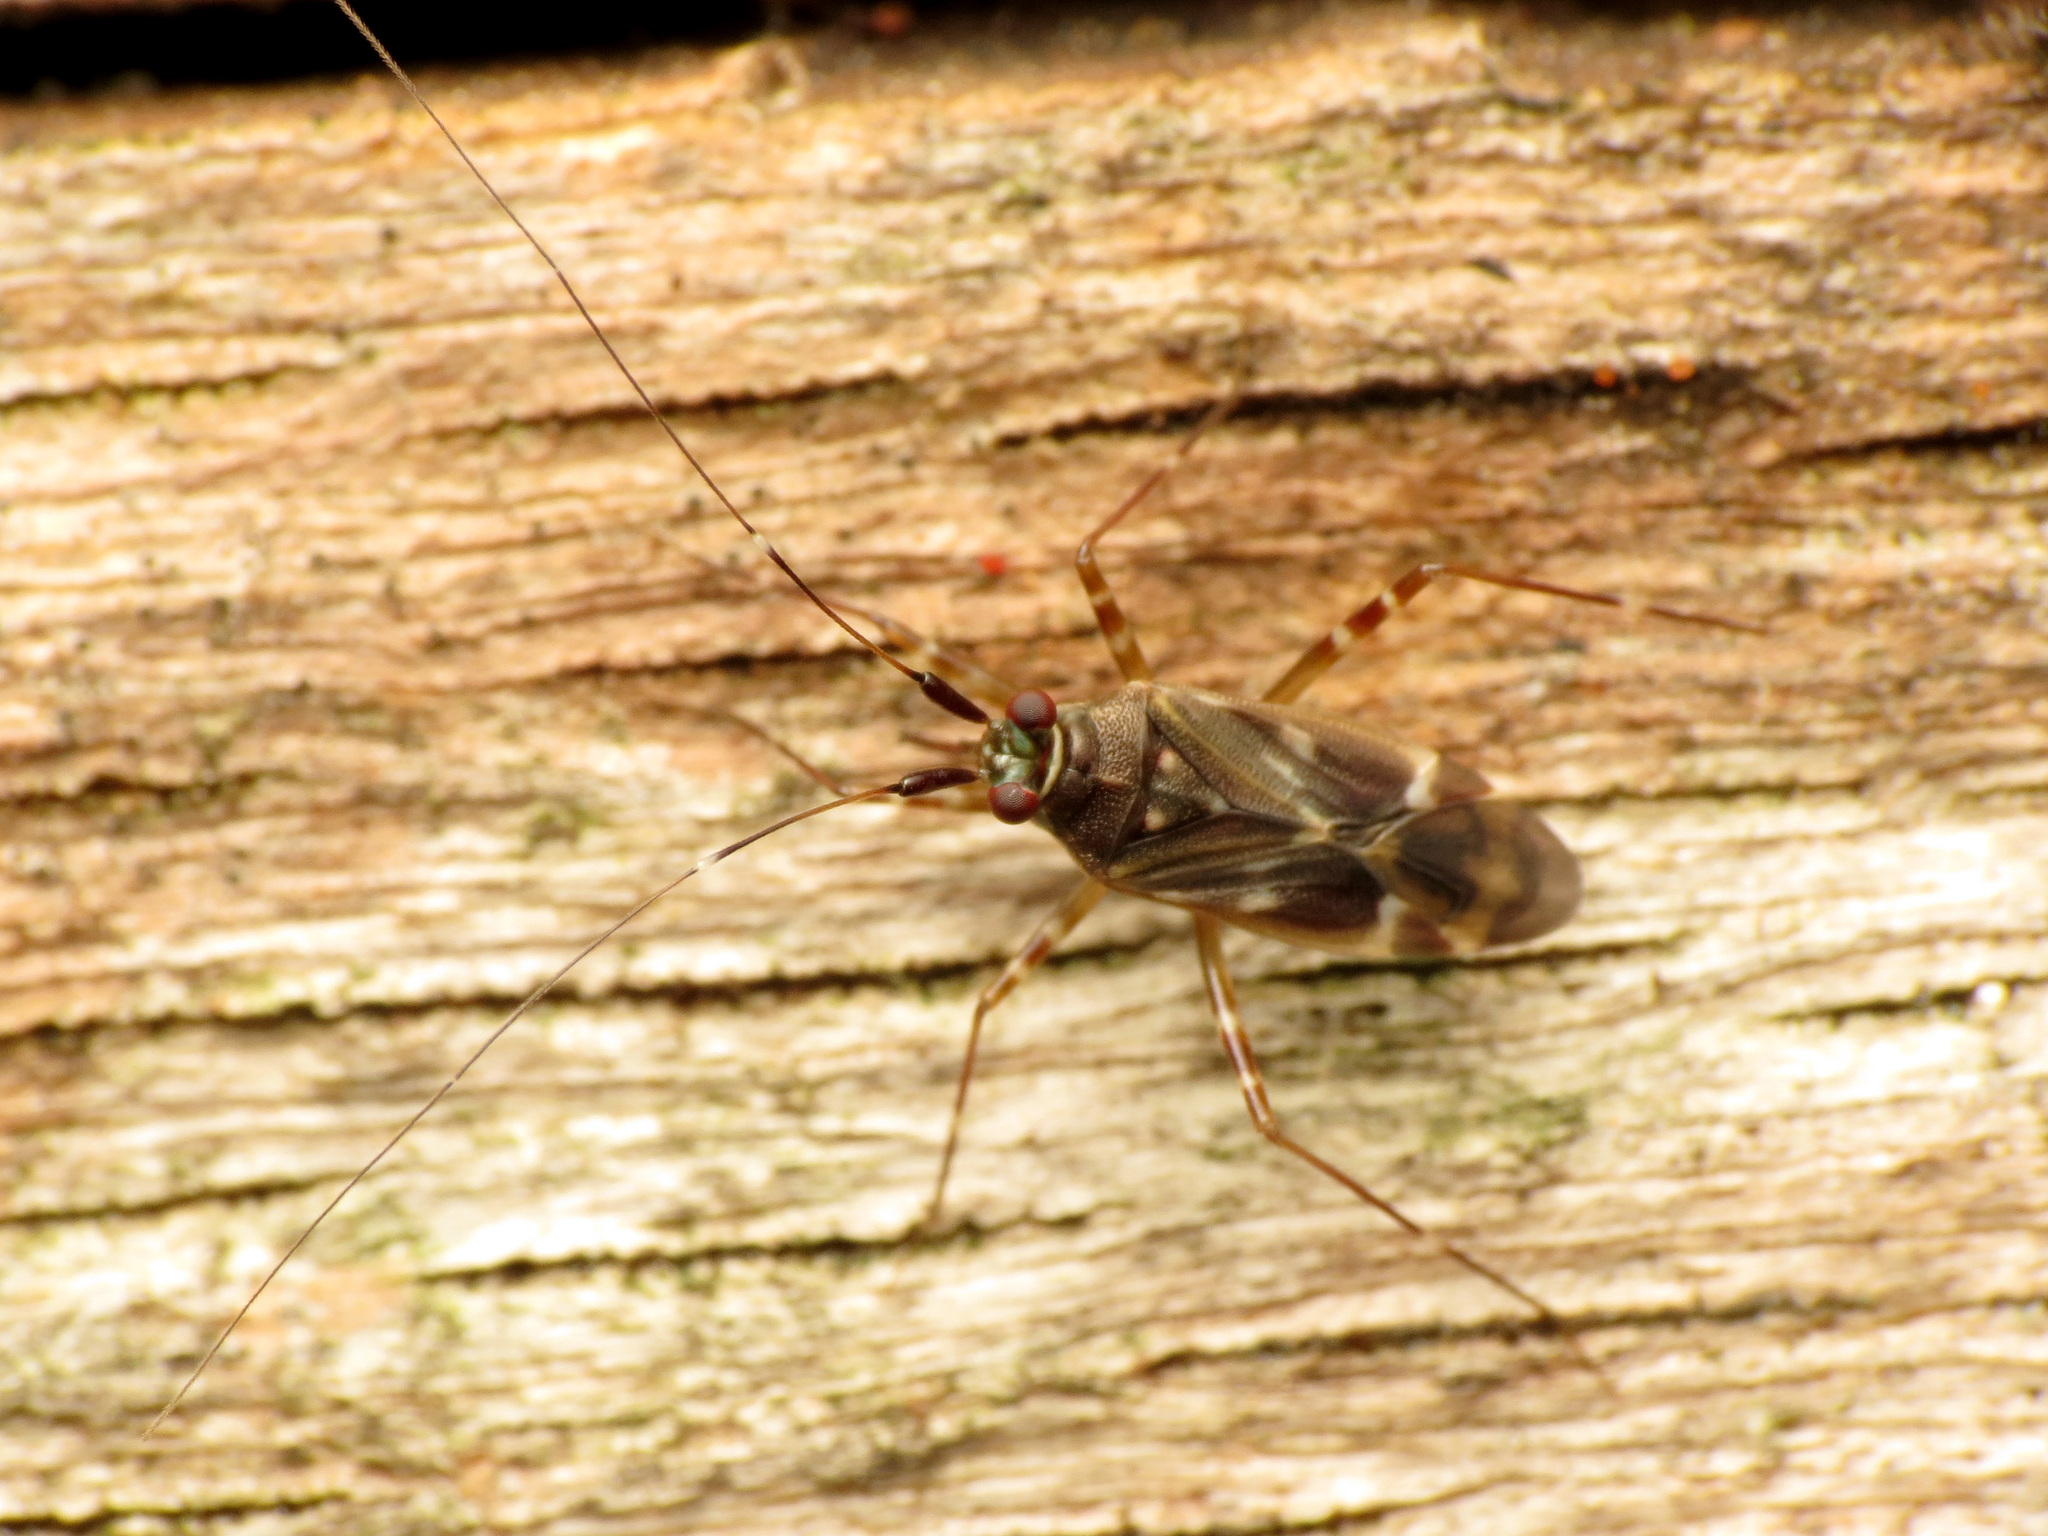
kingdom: Animalia
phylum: Arthropoda
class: Insecta
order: Hemiptera
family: Miridae
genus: Cylapus
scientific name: Cylapus tenuicornis
